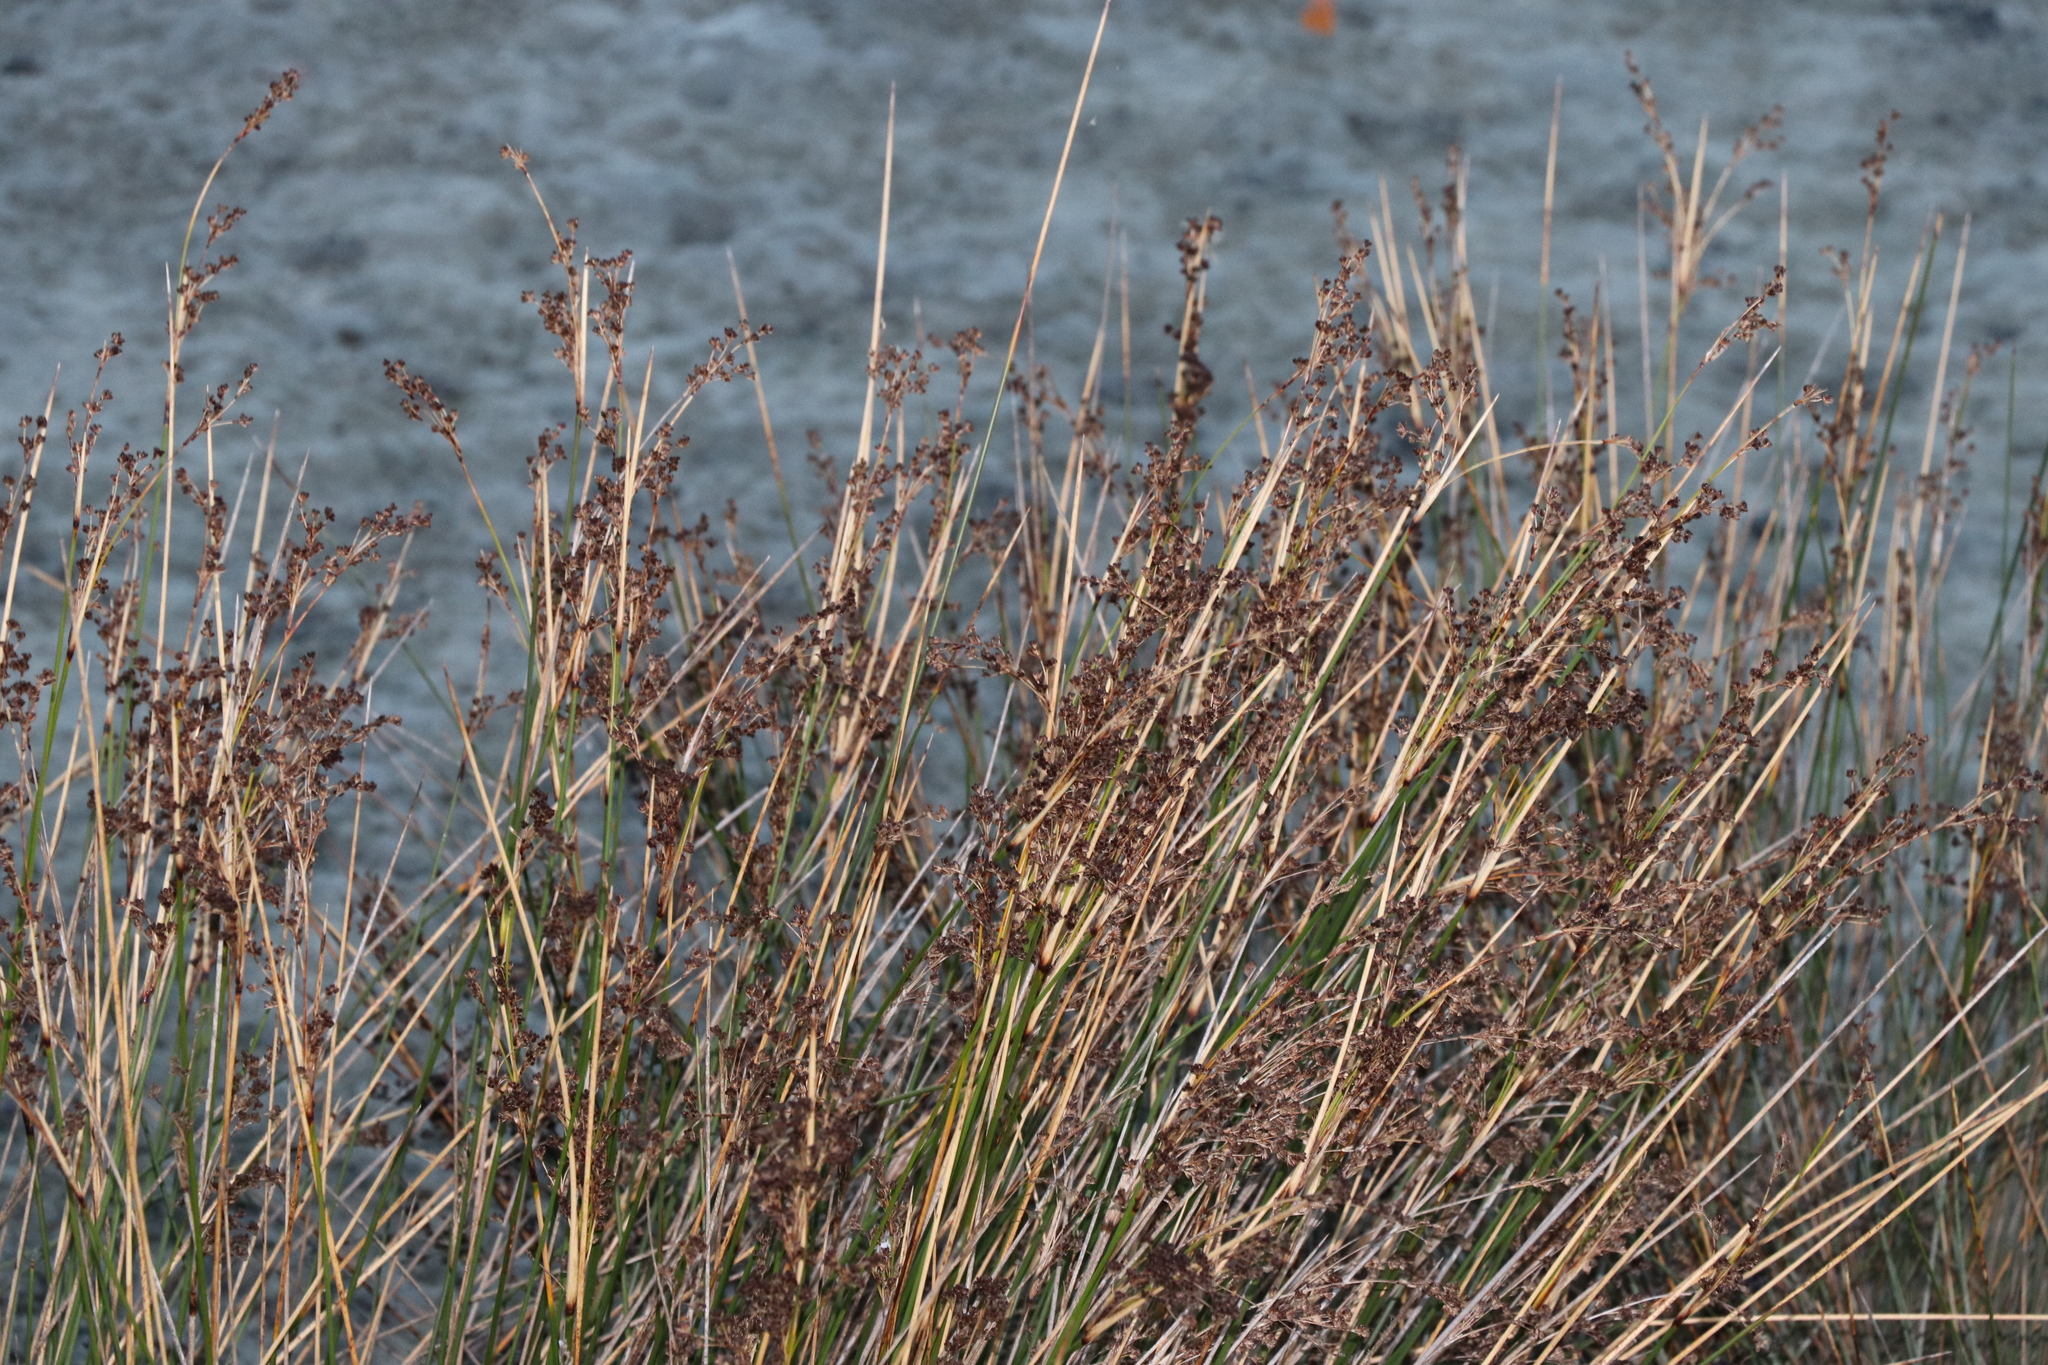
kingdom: Plantae
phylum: Tracheophyta
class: Liliopsida
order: Poales
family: Juncaceae
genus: Juncus
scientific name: Juncus kraussii
